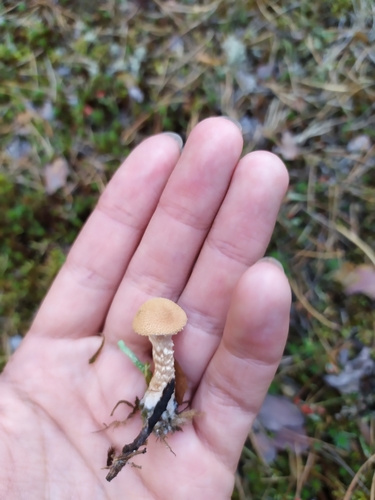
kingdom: Fungi
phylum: Basidiomycota
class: Agaricomycetes
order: Agaricales
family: Tricholomataceae
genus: Cystoderma
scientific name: Cystoderma
